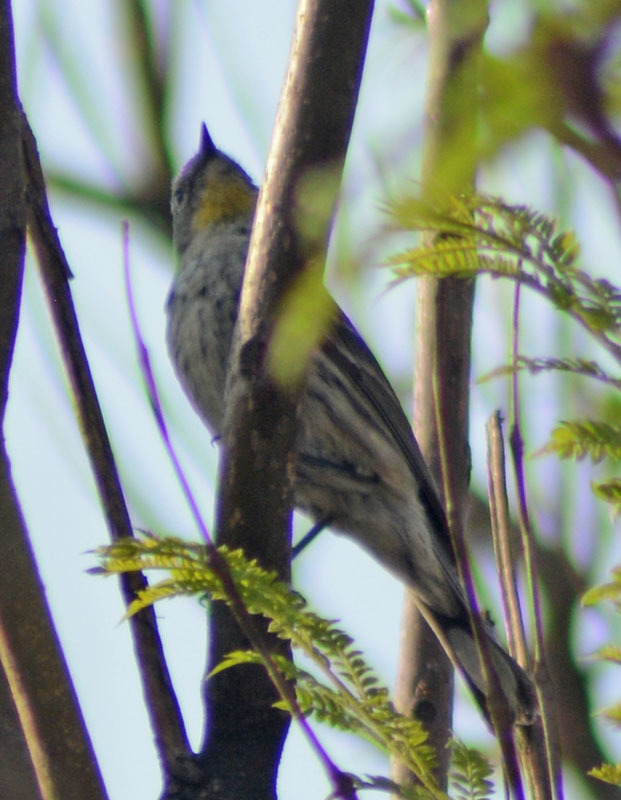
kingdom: Animalia
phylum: Chordata
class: Aves
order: Passeriformes
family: Parulidae
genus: Setophaga
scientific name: Setophaga auduboni
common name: Audubon's warbler
